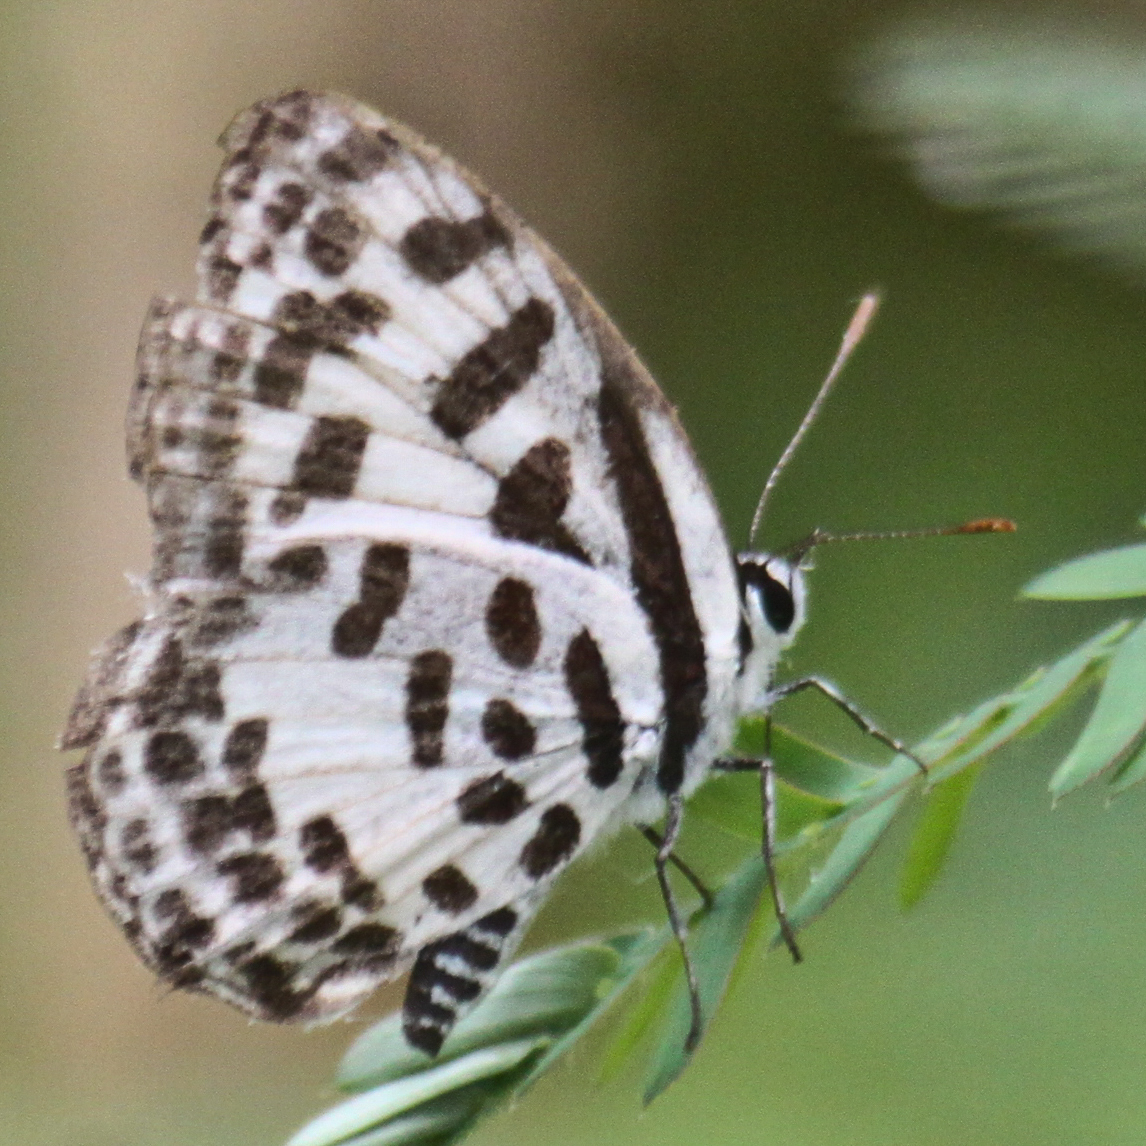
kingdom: Animalia
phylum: Arthropoda
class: Insecta
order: Lepidoptera
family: Lycaenidae
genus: Castalius
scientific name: Castalius rosimon
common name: Common pierrot
